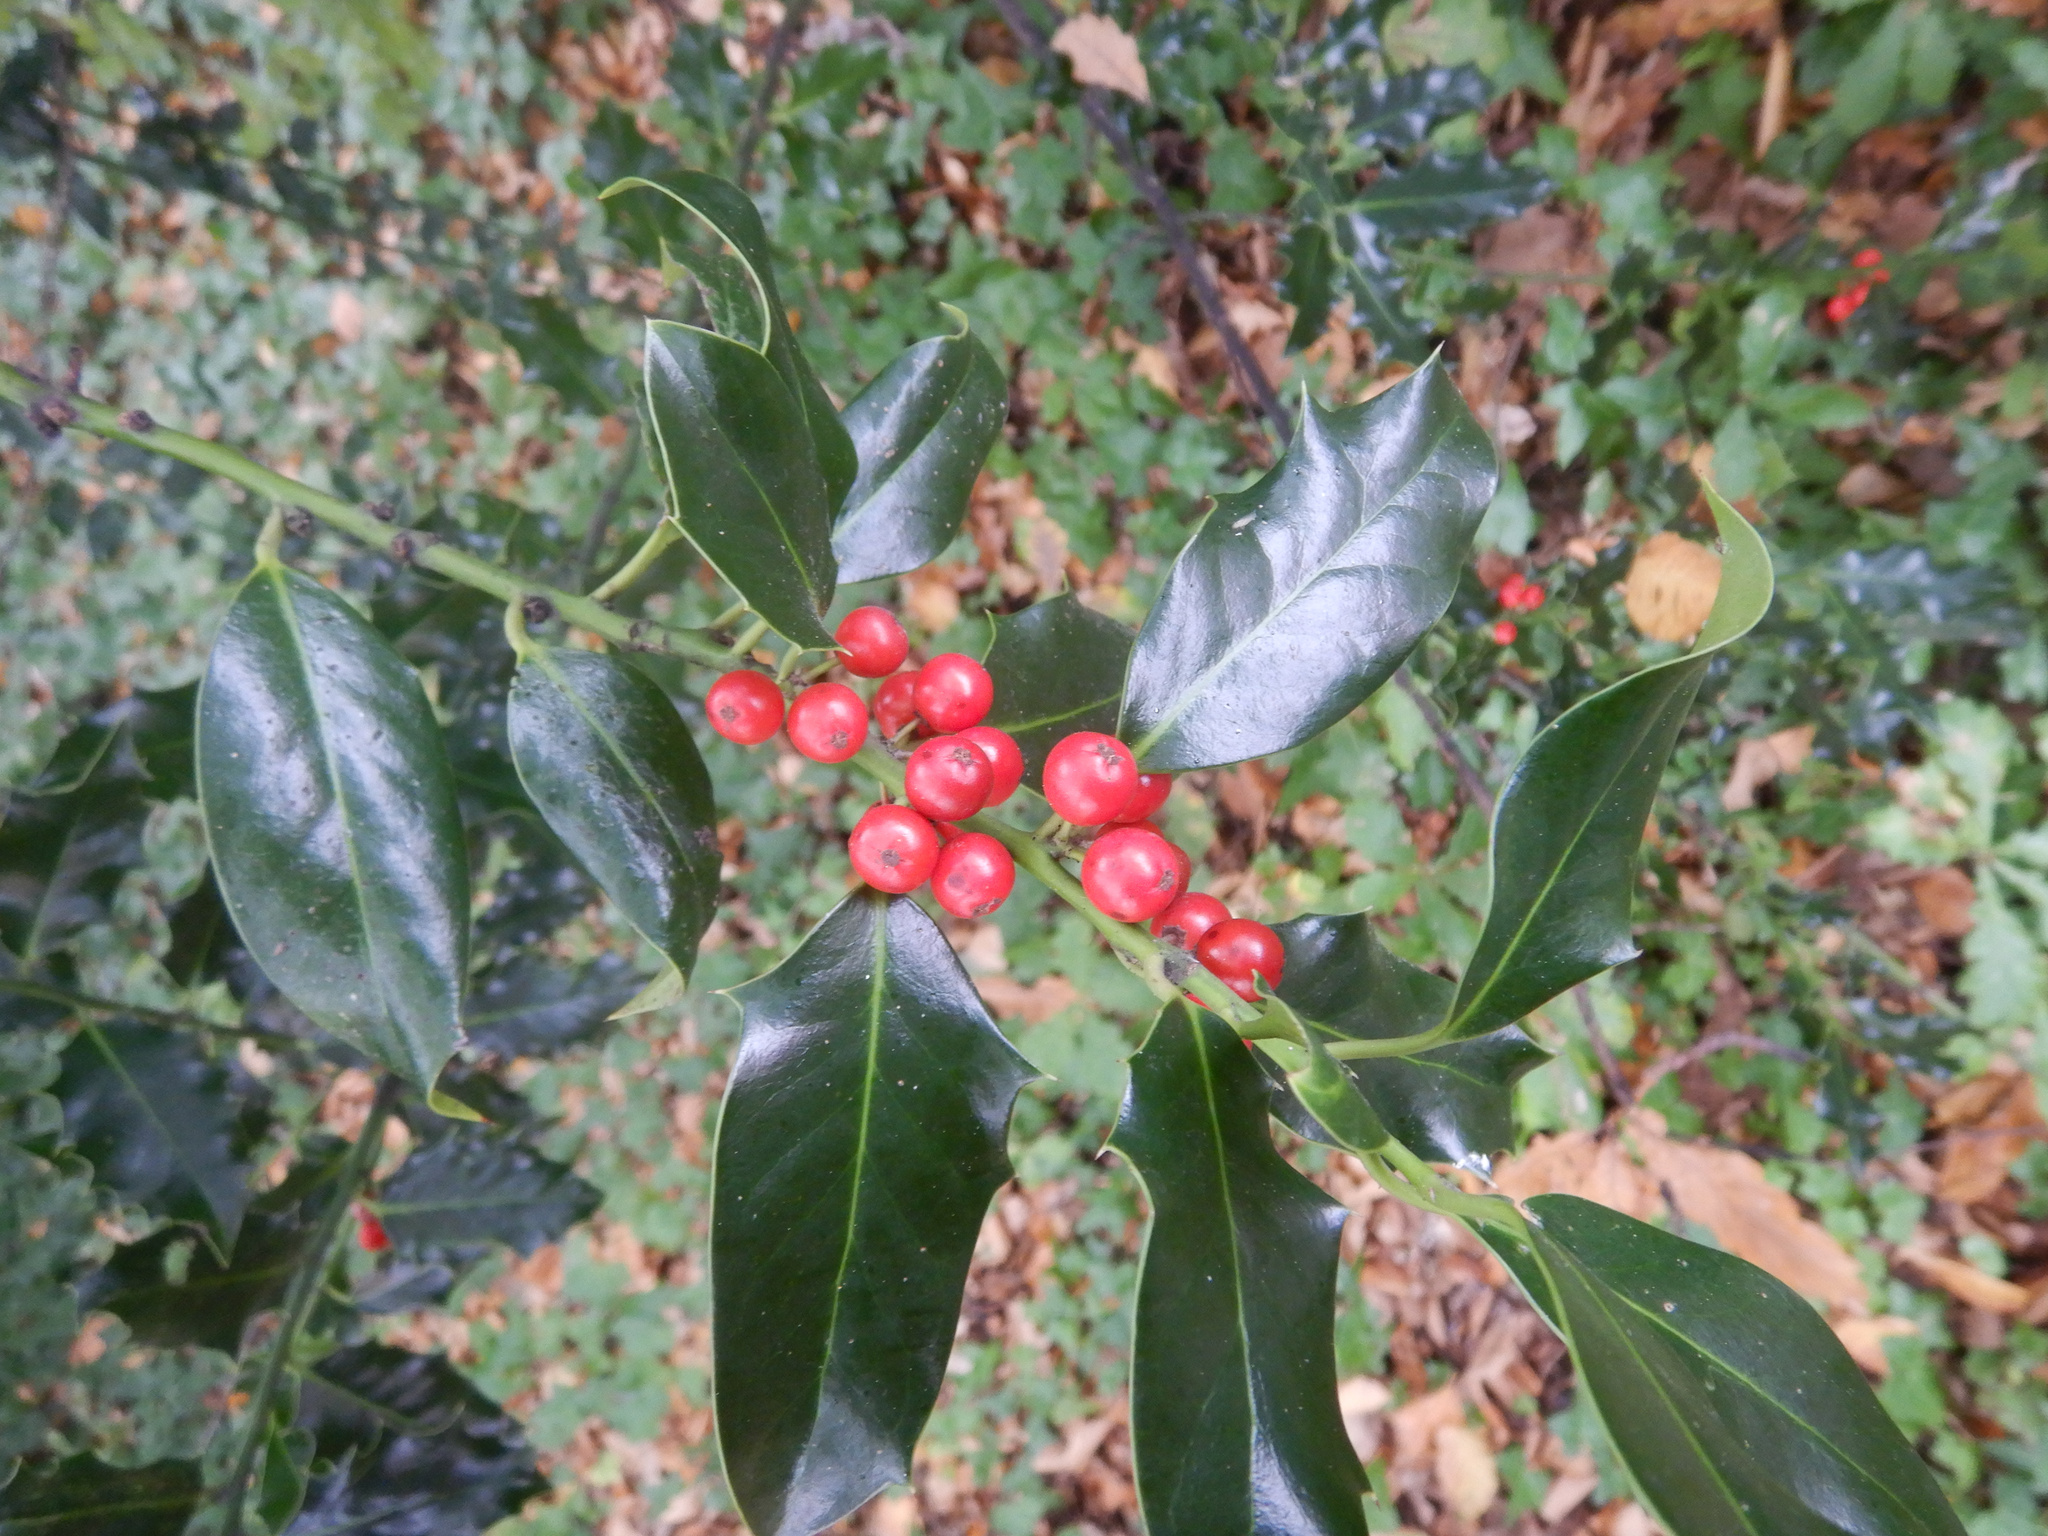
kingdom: Plantae
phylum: Tracheophyta
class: Magnoliopsida
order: Aquifoliales
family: Aquifoliaceae
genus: Ilex
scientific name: Ilex aquifolium
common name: English holly
